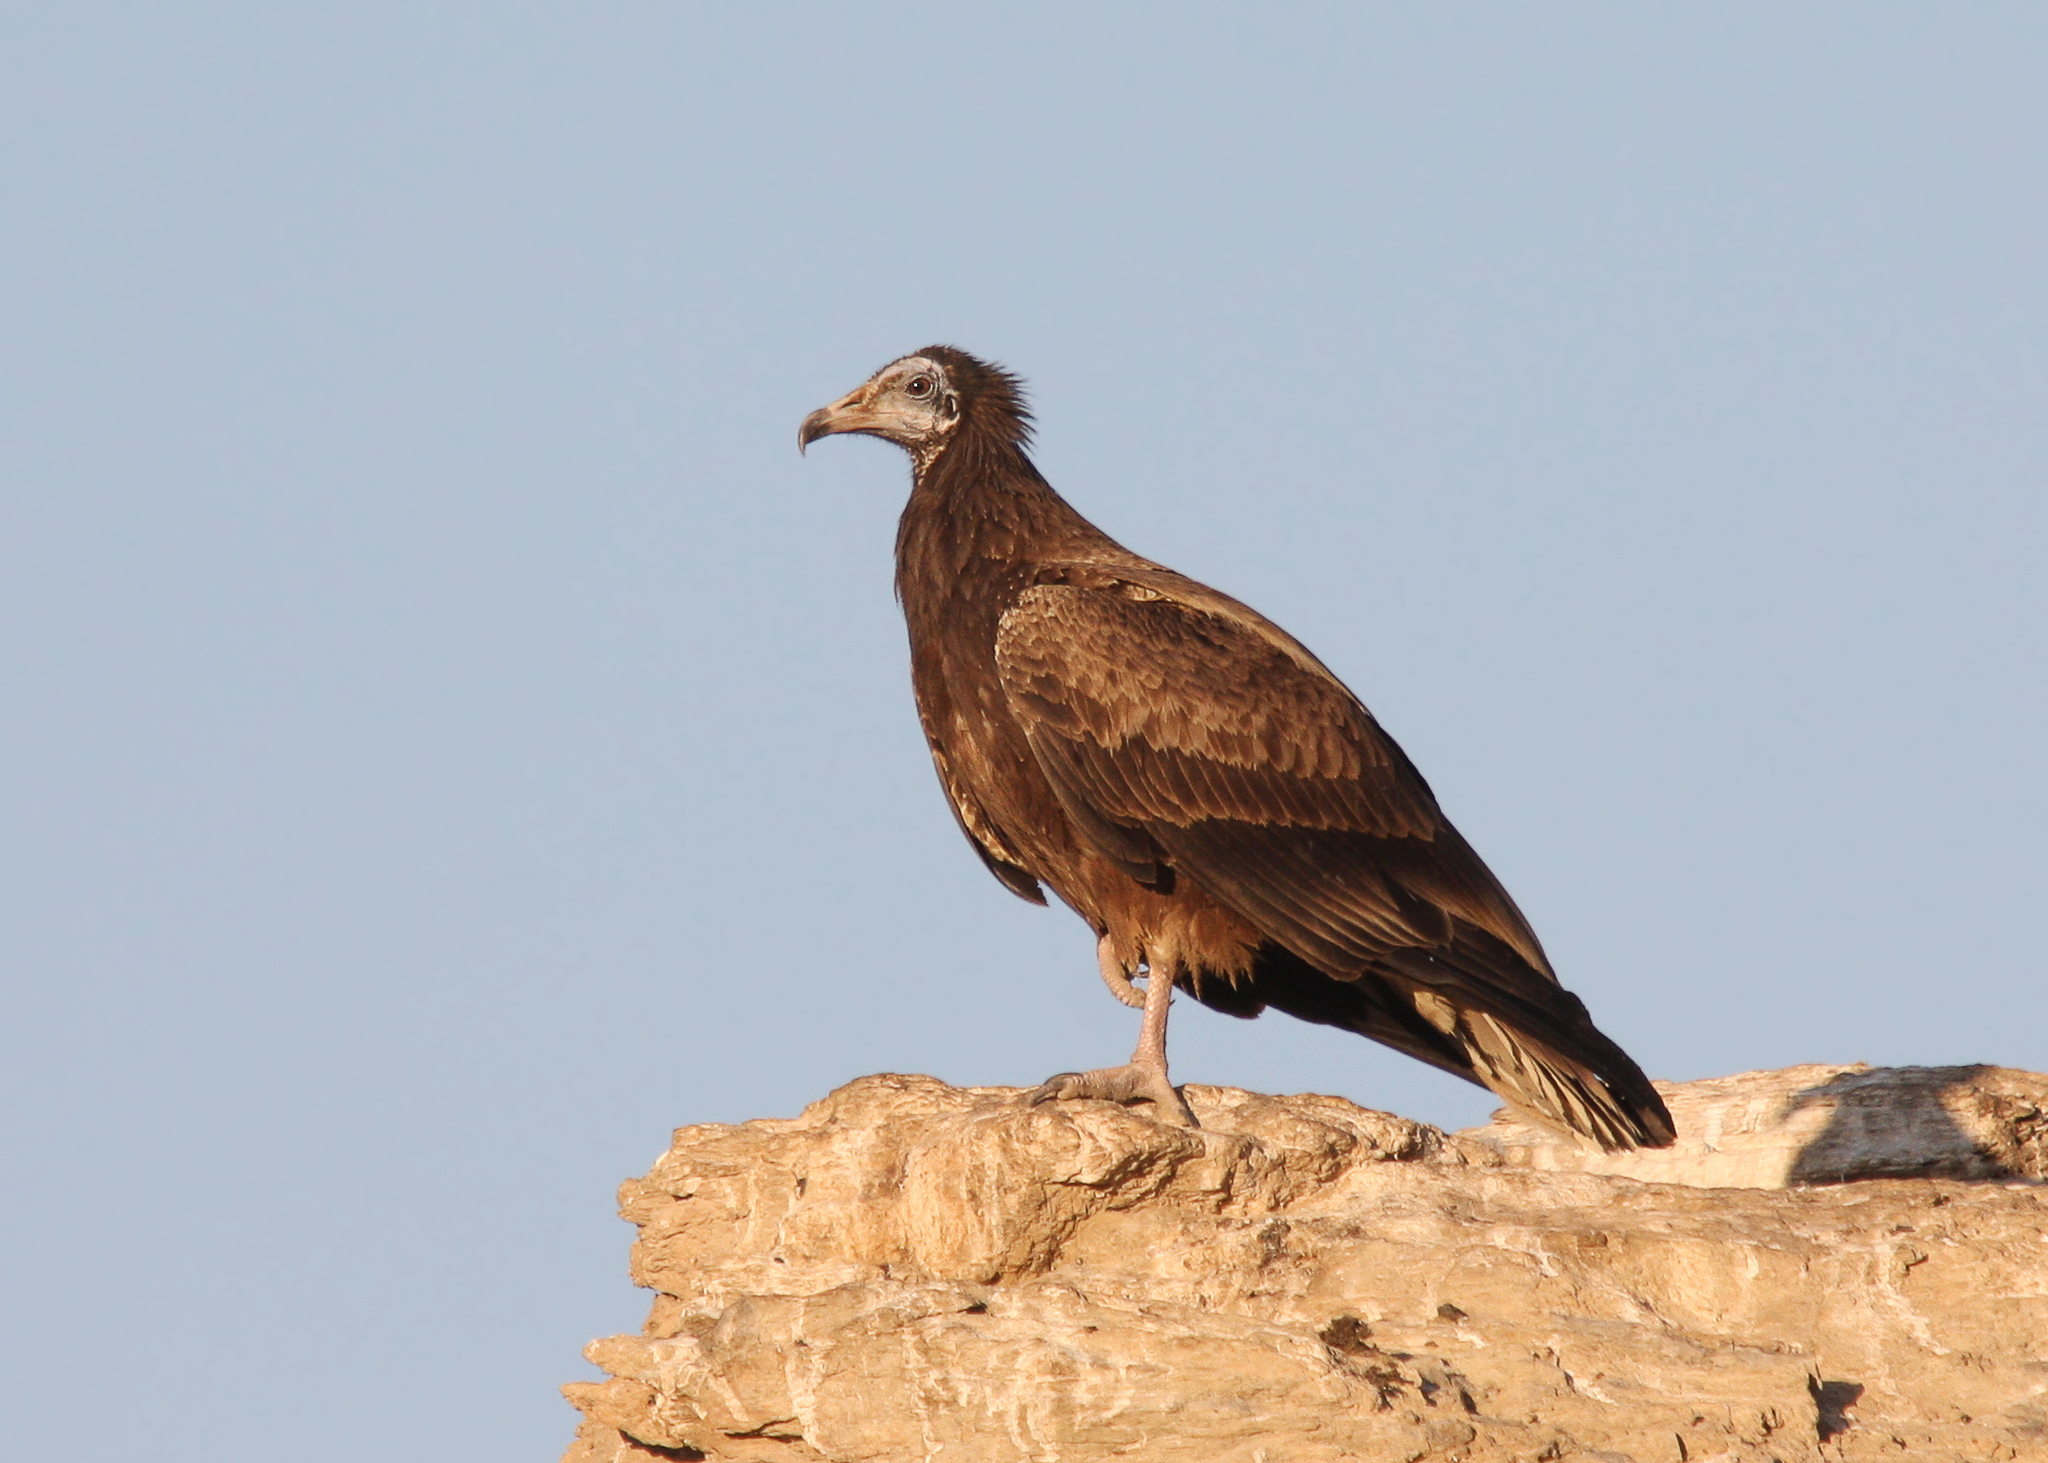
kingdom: Animalia
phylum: Chordata
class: Aves
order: Accipitriformes
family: Accipitridae
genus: Neophron
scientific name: Neophron percnopterus
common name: Egyptian vulture
